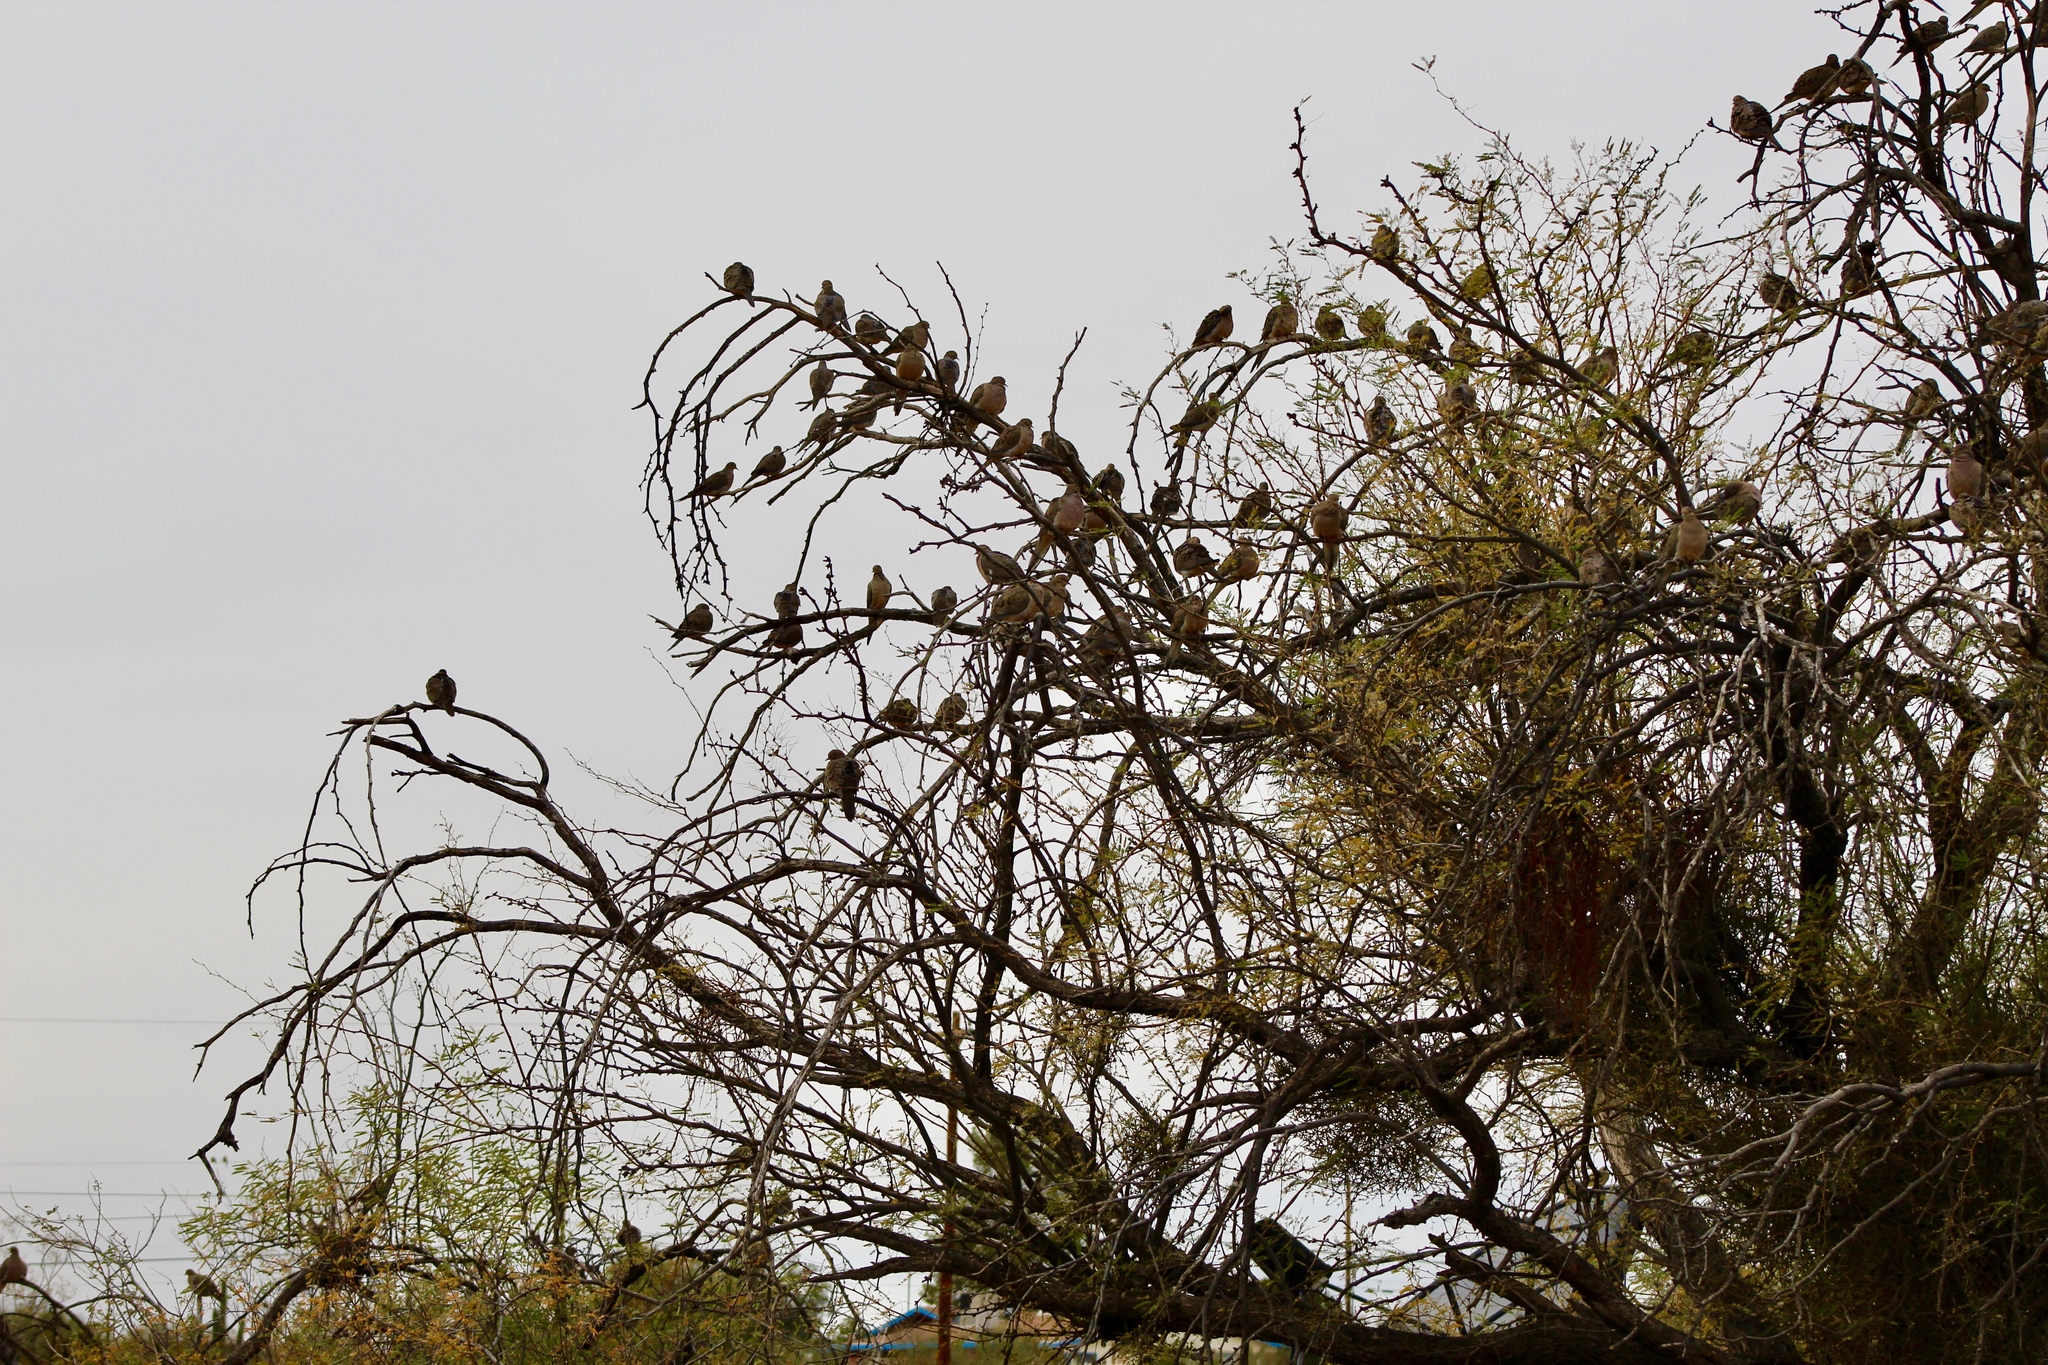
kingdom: Animalia
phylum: Chordata
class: Aves
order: Columbiformes
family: Columbidae
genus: Zenaida
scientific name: Zenaida macroura
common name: Mourning dove
